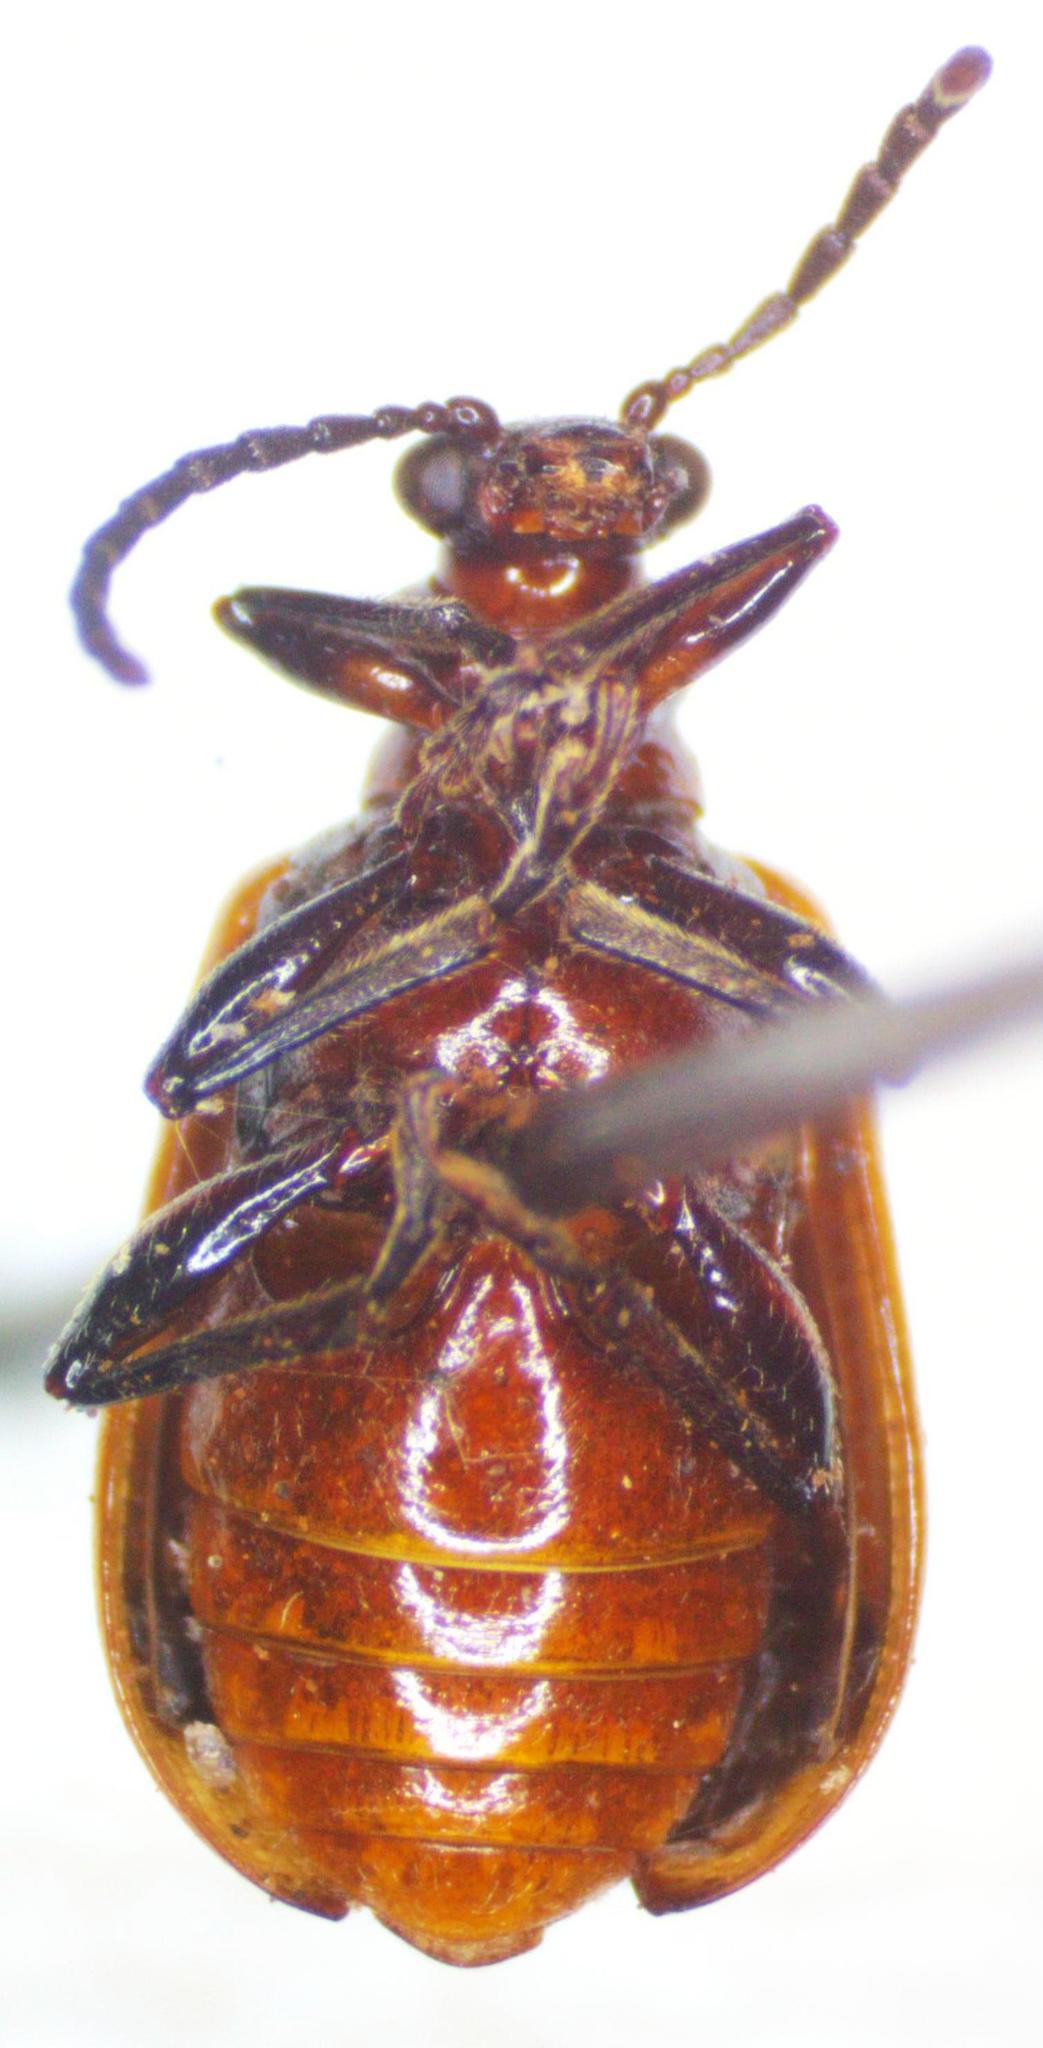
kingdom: Animalia
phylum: Arthropoda
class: Insecta
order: Coleoptera
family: Chrysomelidae
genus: Lema
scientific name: Lema confusa
